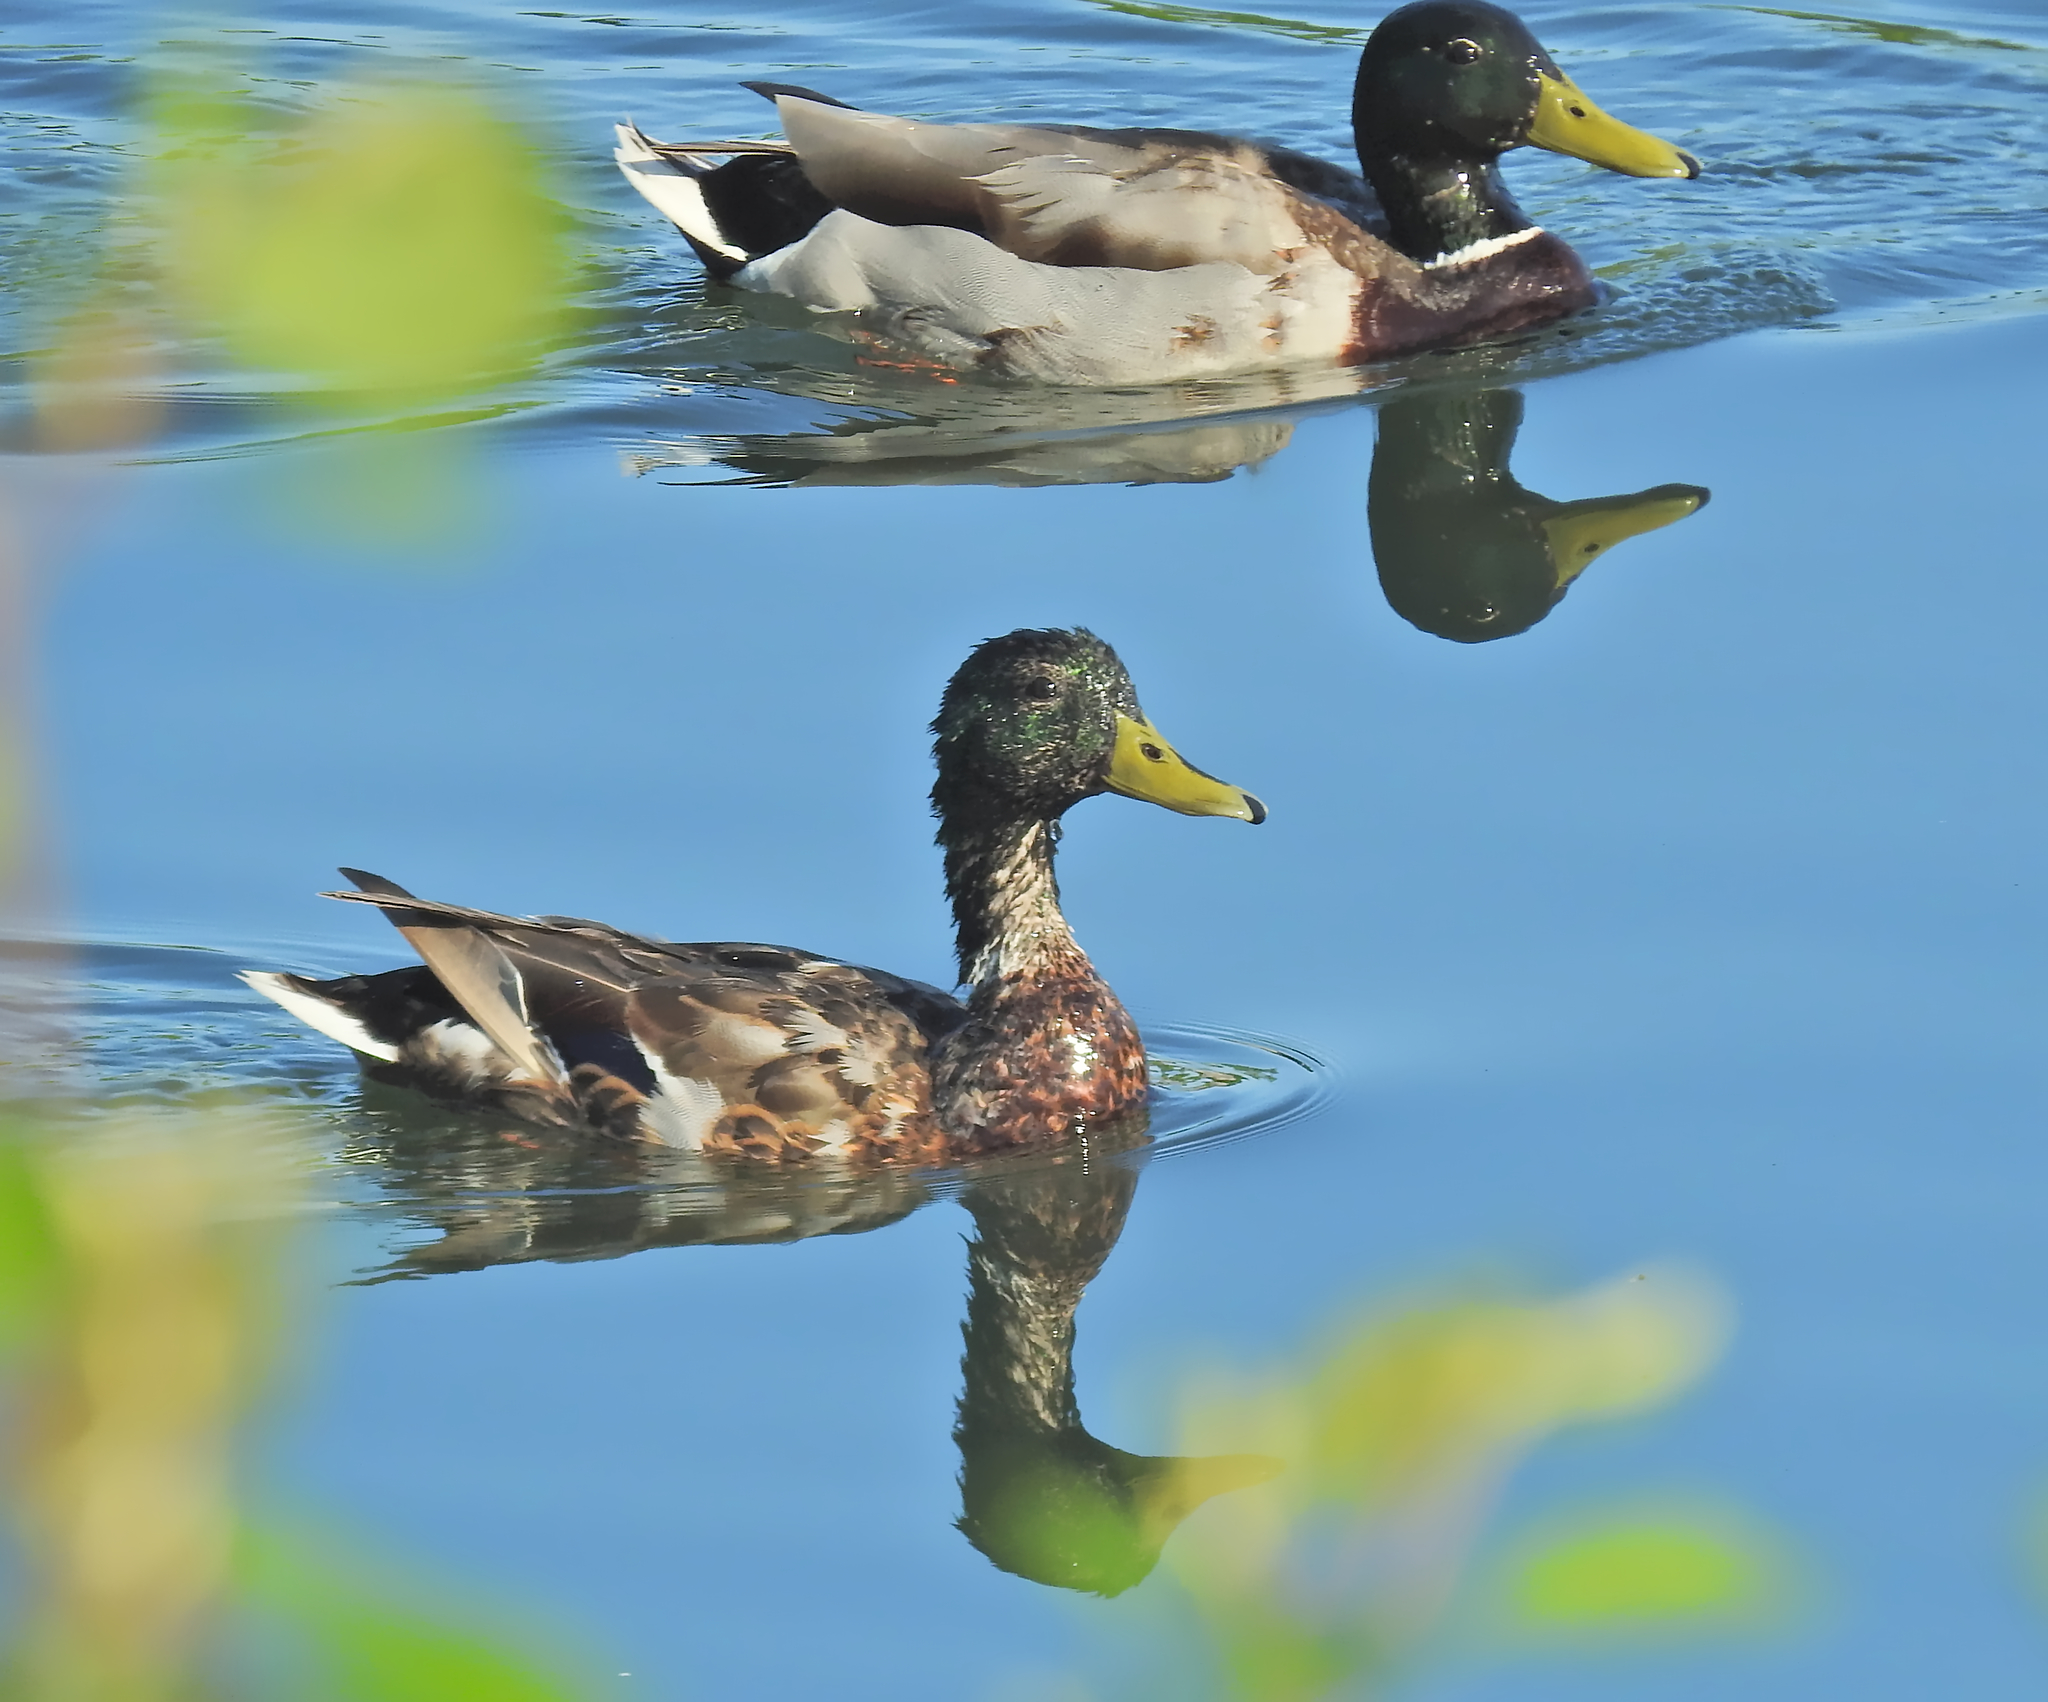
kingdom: Animalia
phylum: Chordata
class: Aves
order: Anseriformes
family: Anatidae
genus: Anas
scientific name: Anas platyrhynchos
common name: Mallard
